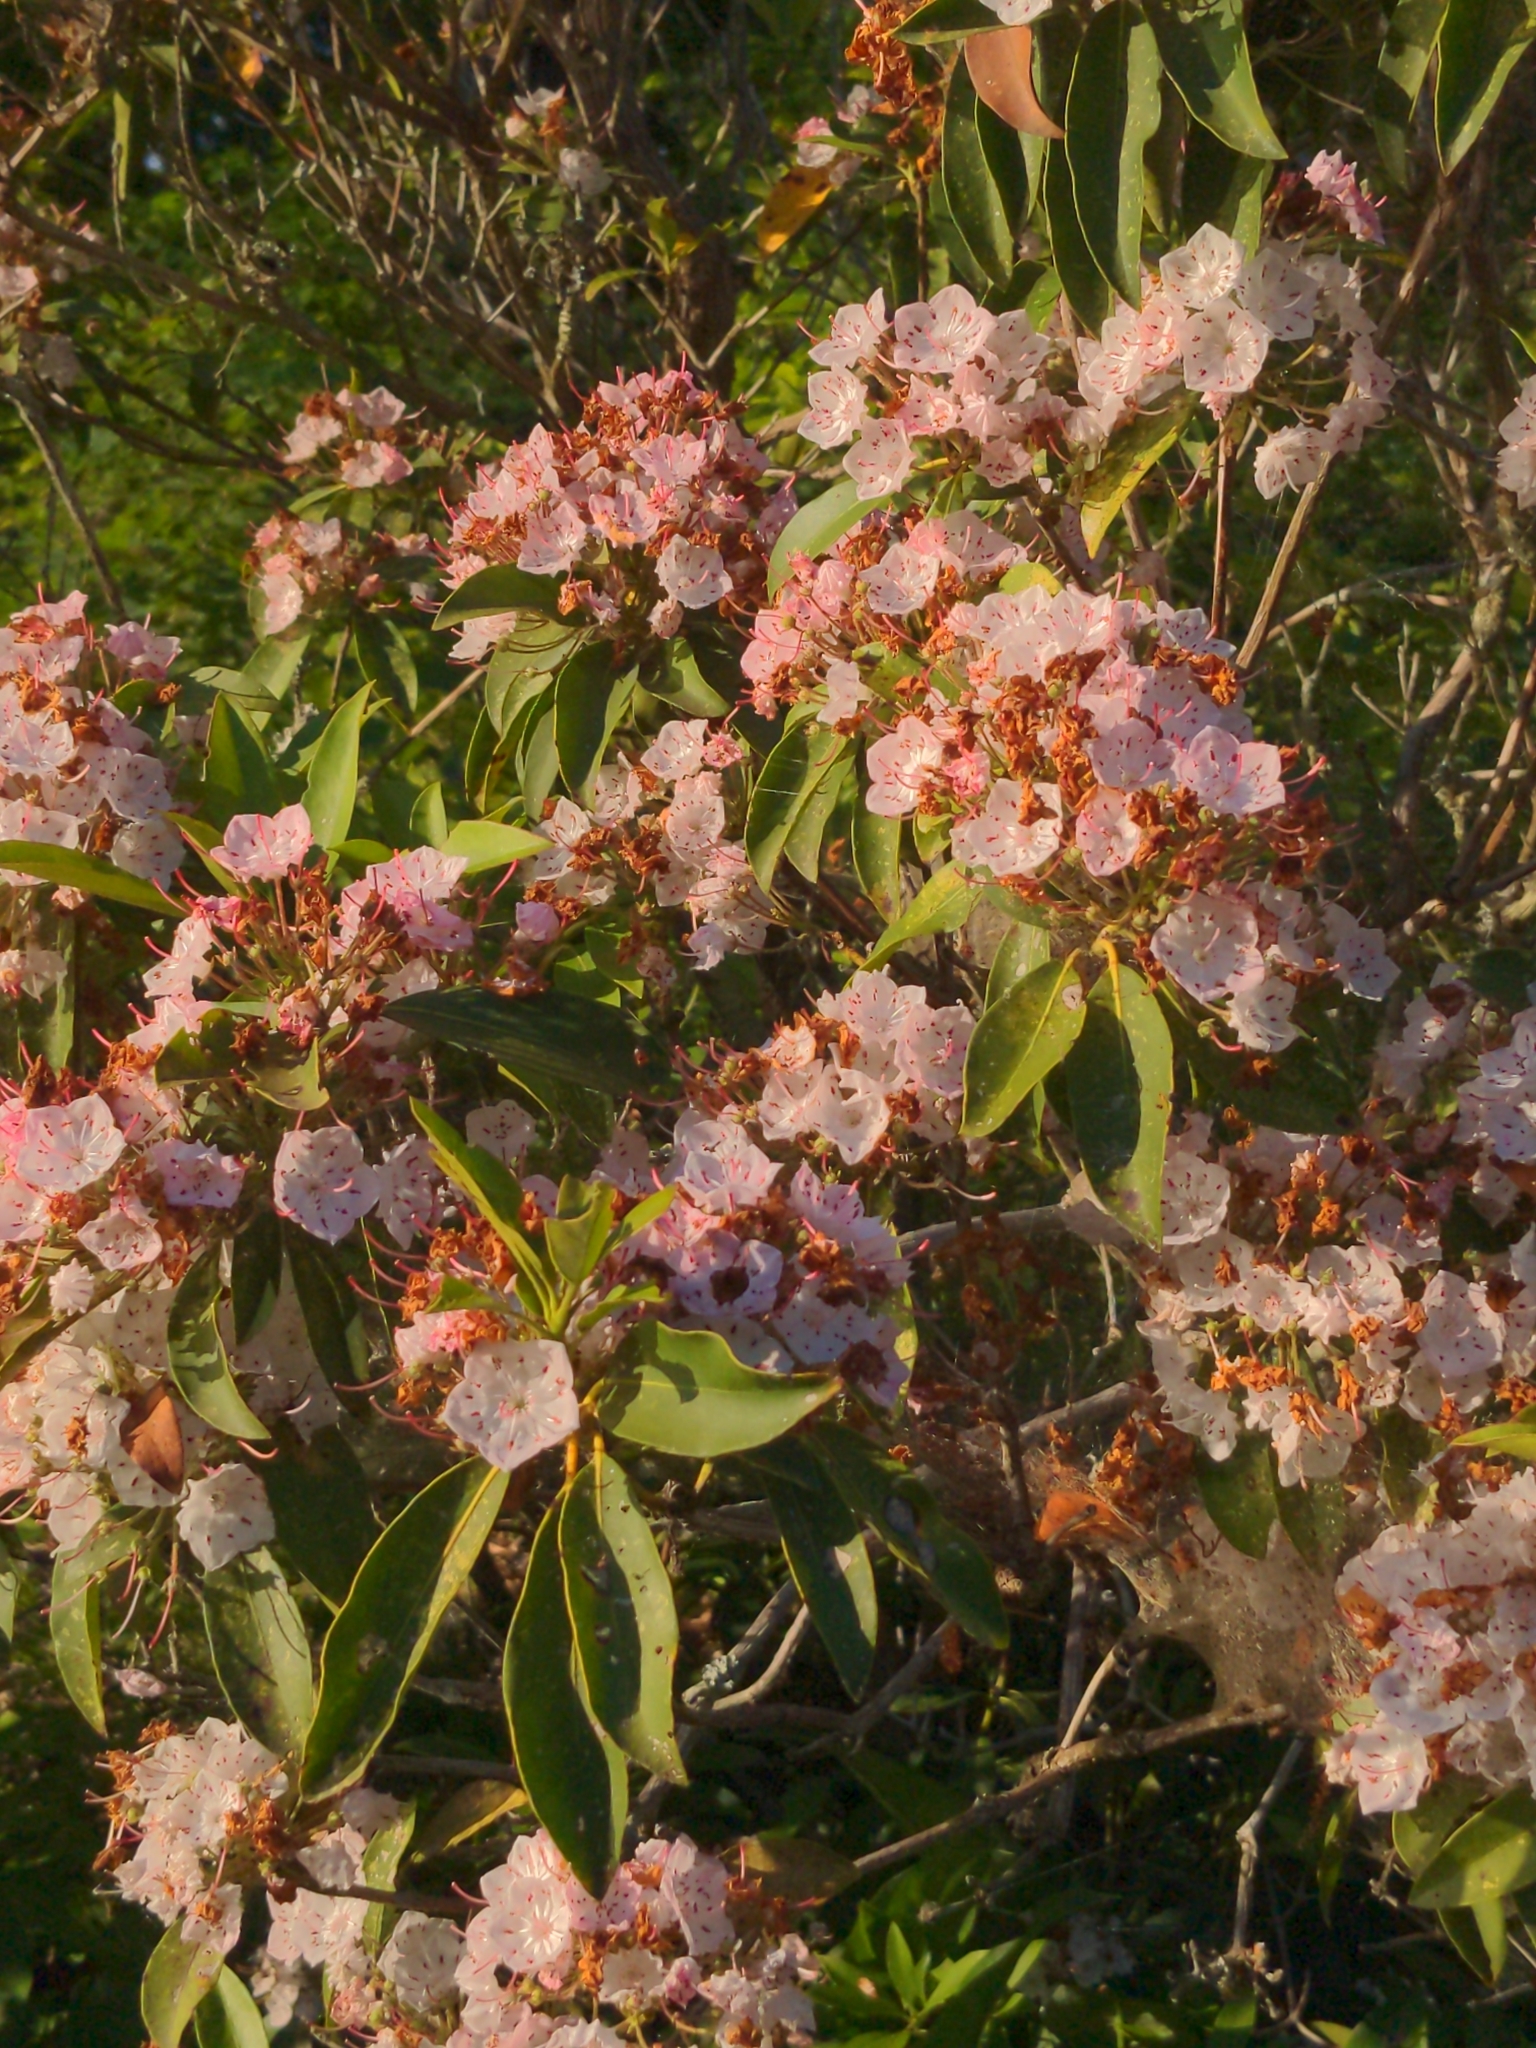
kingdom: Plantae
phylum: Tracheophyta
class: Magnoliopsida
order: Ericales
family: Ericaceae
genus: Kalmia
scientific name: Kalmia latifolia
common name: Mountain-laurel
